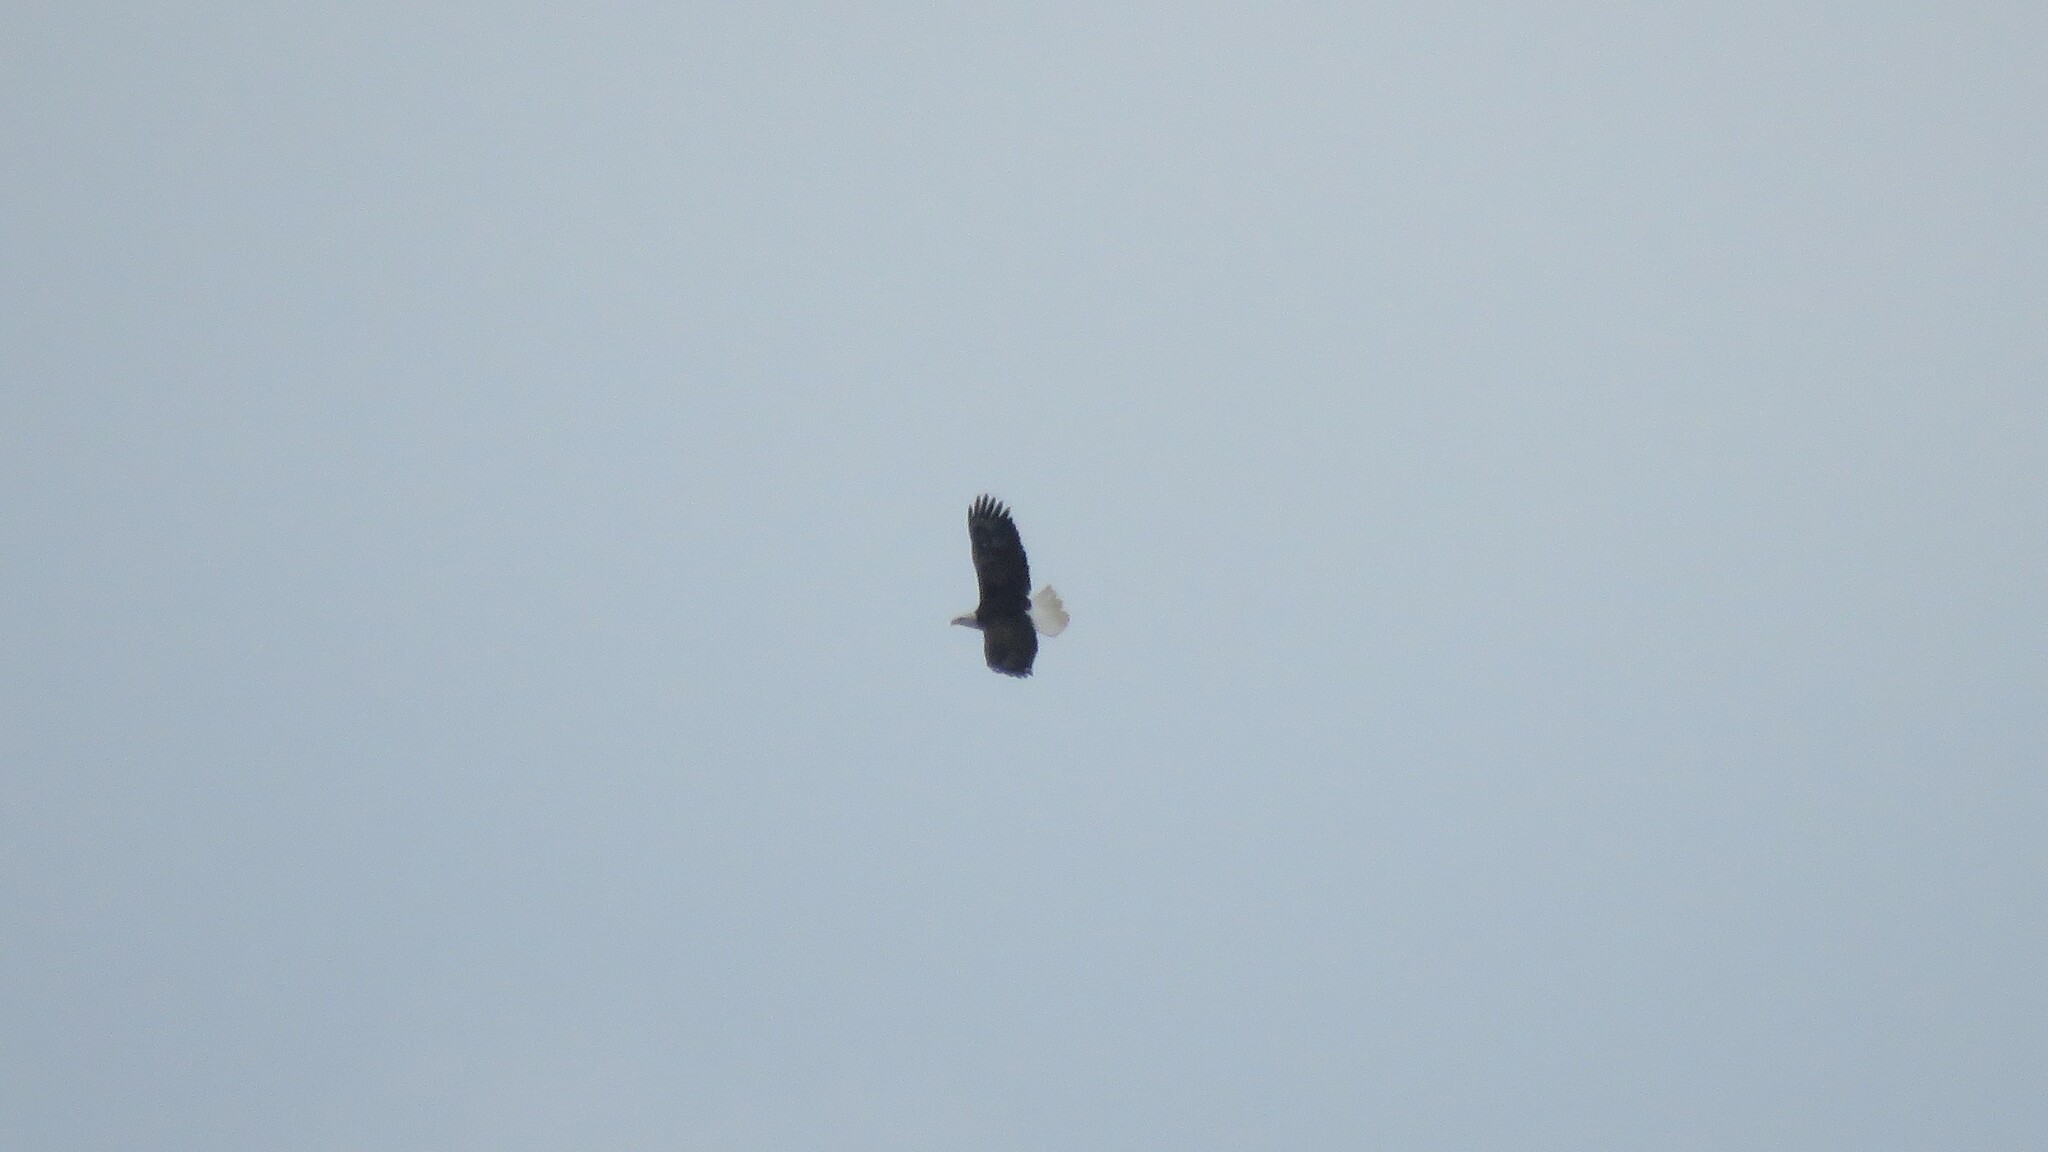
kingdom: Animalia
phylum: Chordata
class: Aves
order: Accipitriformes
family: Accipitridae
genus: Haliaeetus
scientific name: Haliaeetus leucocephalus
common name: Bald eagle
